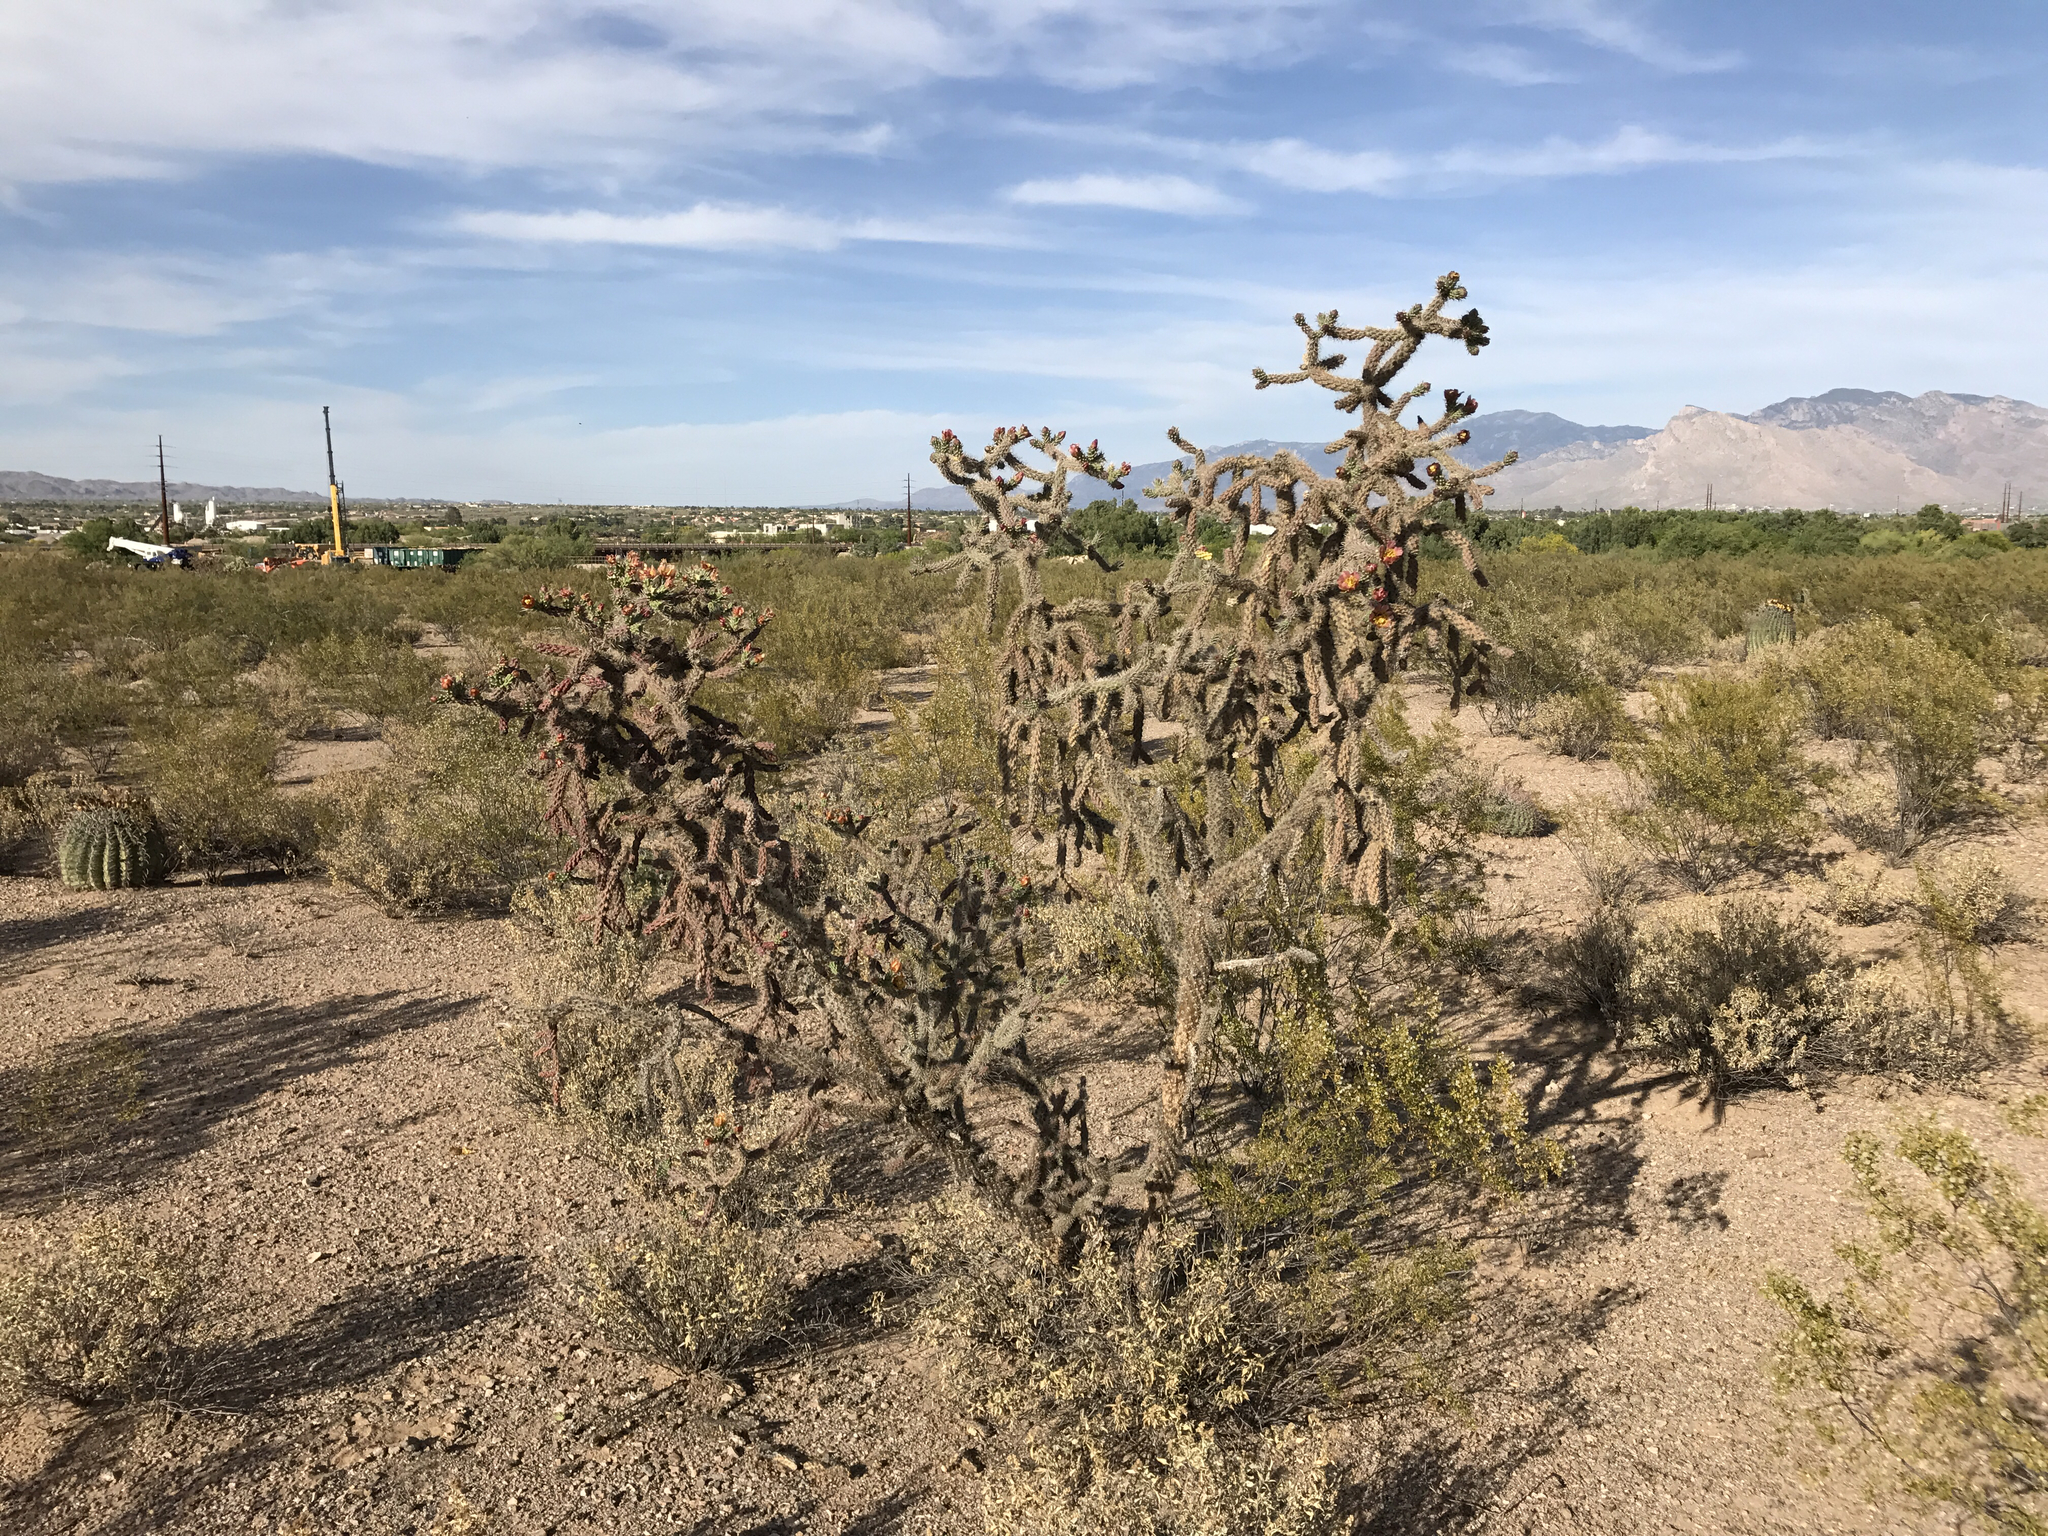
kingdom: Plantae
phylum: Tracheophyta
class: Magnoliopsida
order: Caryophyllales
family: Cactaceae
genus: Cylindropuntia
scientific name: Cylindropuntia imbricata
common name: Candelabrum cactus
